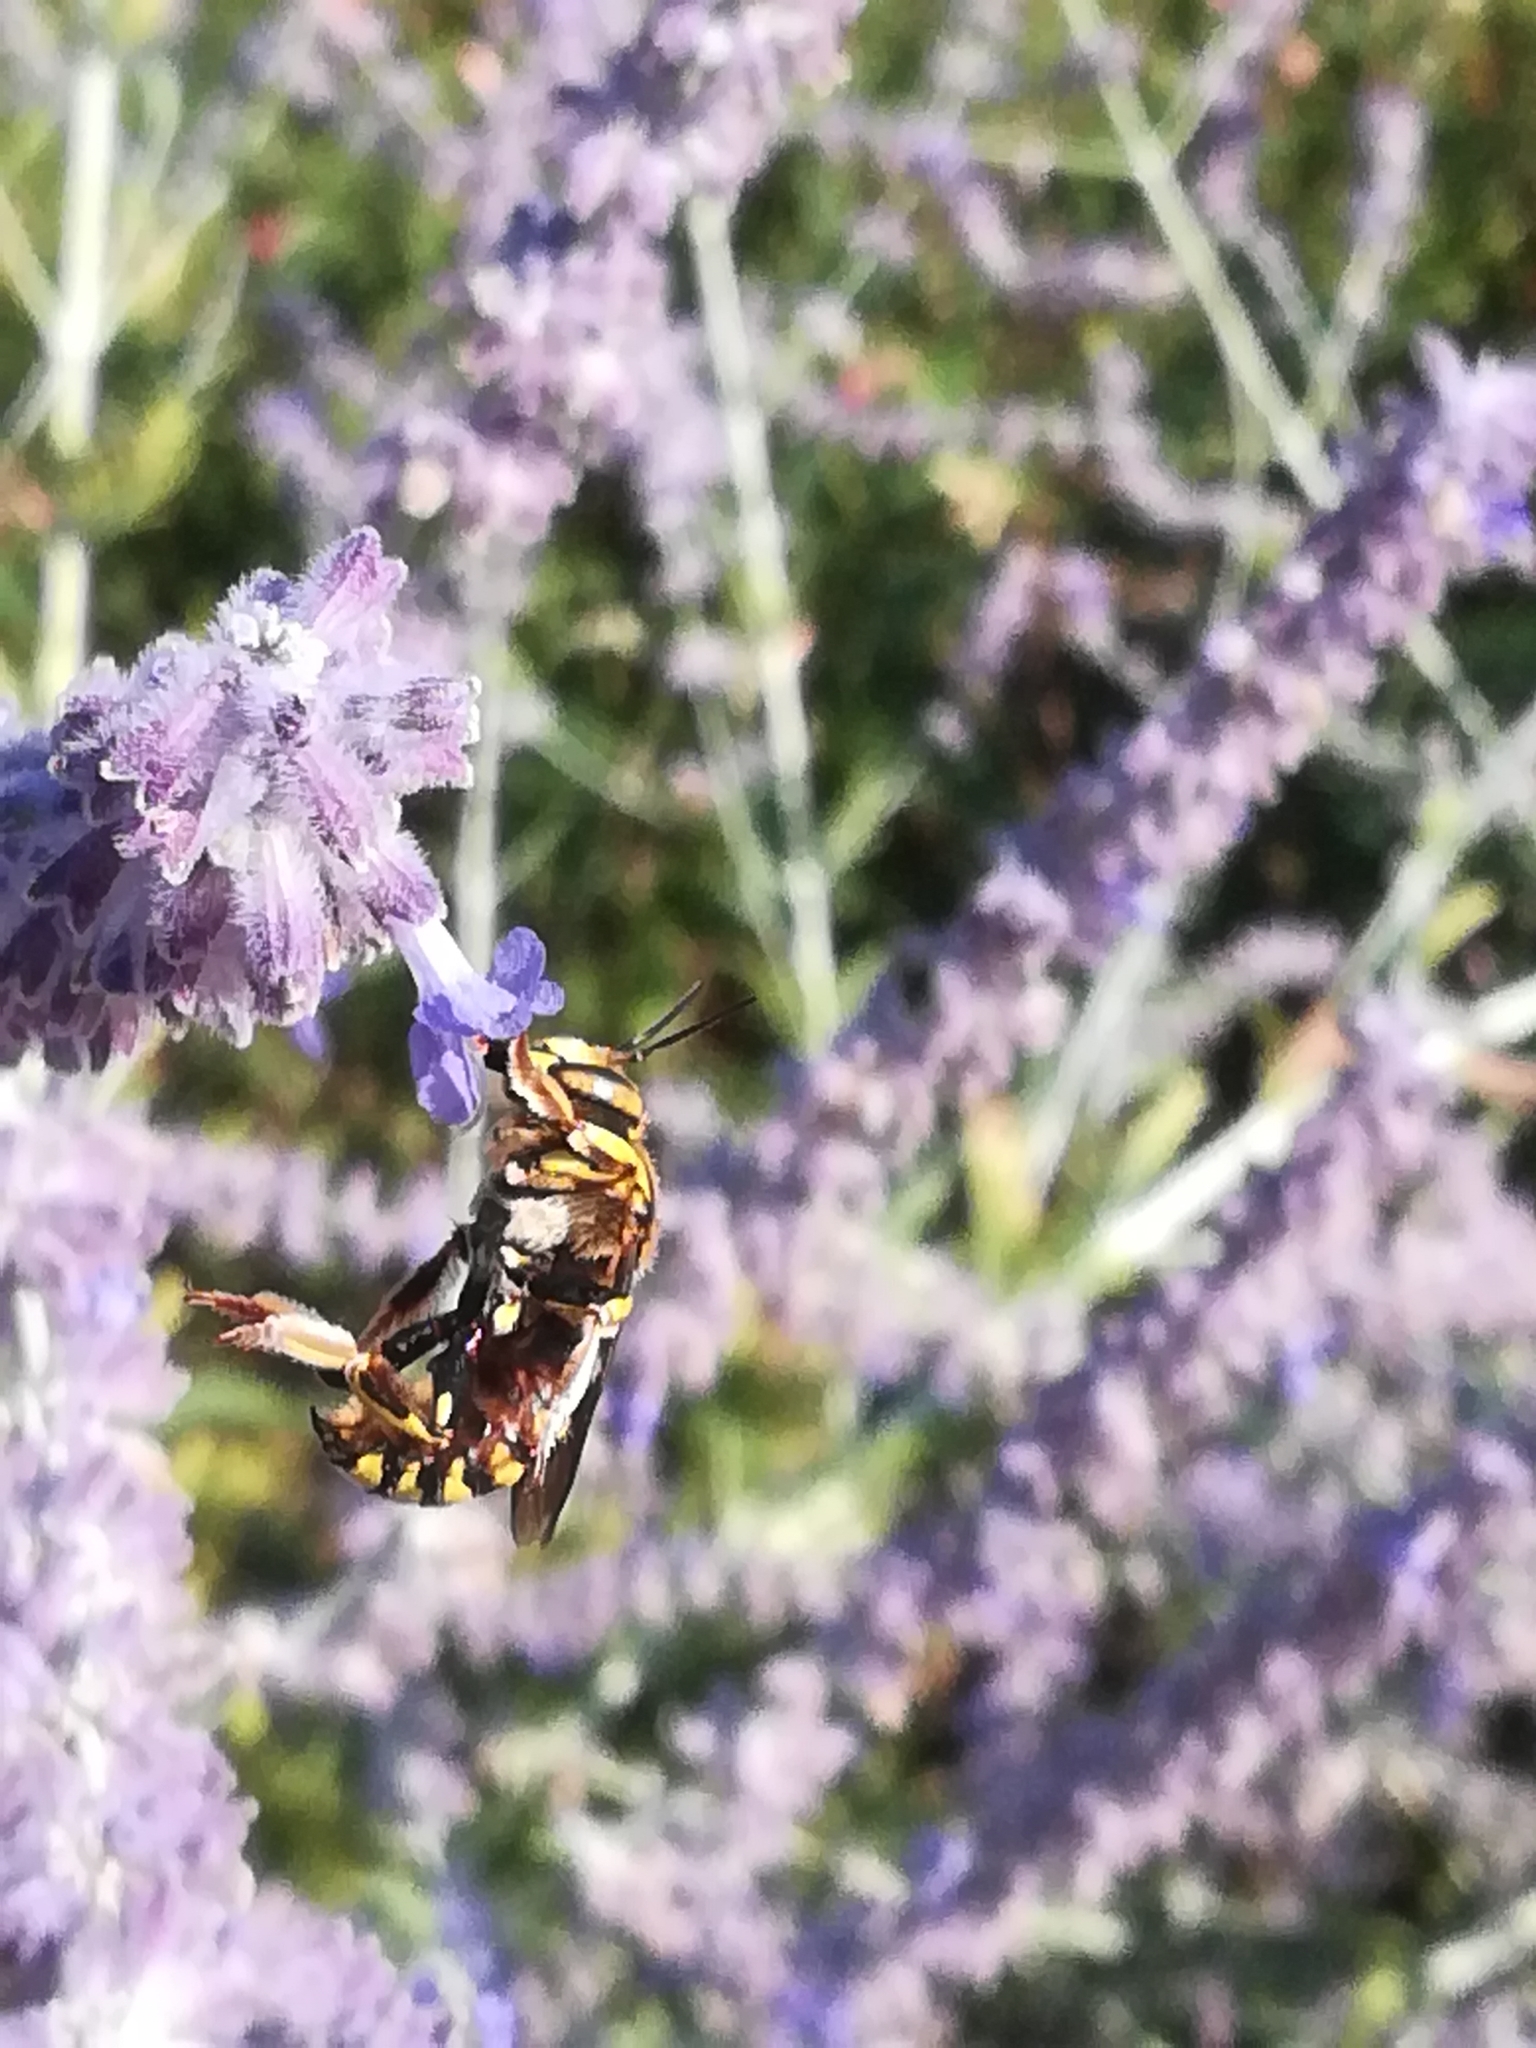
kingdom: Animalia
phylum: Arthropoda
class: Insecta
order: Hymenoptera
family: Megachilidae
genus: Anthidium
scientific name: Anthidium florentinum
